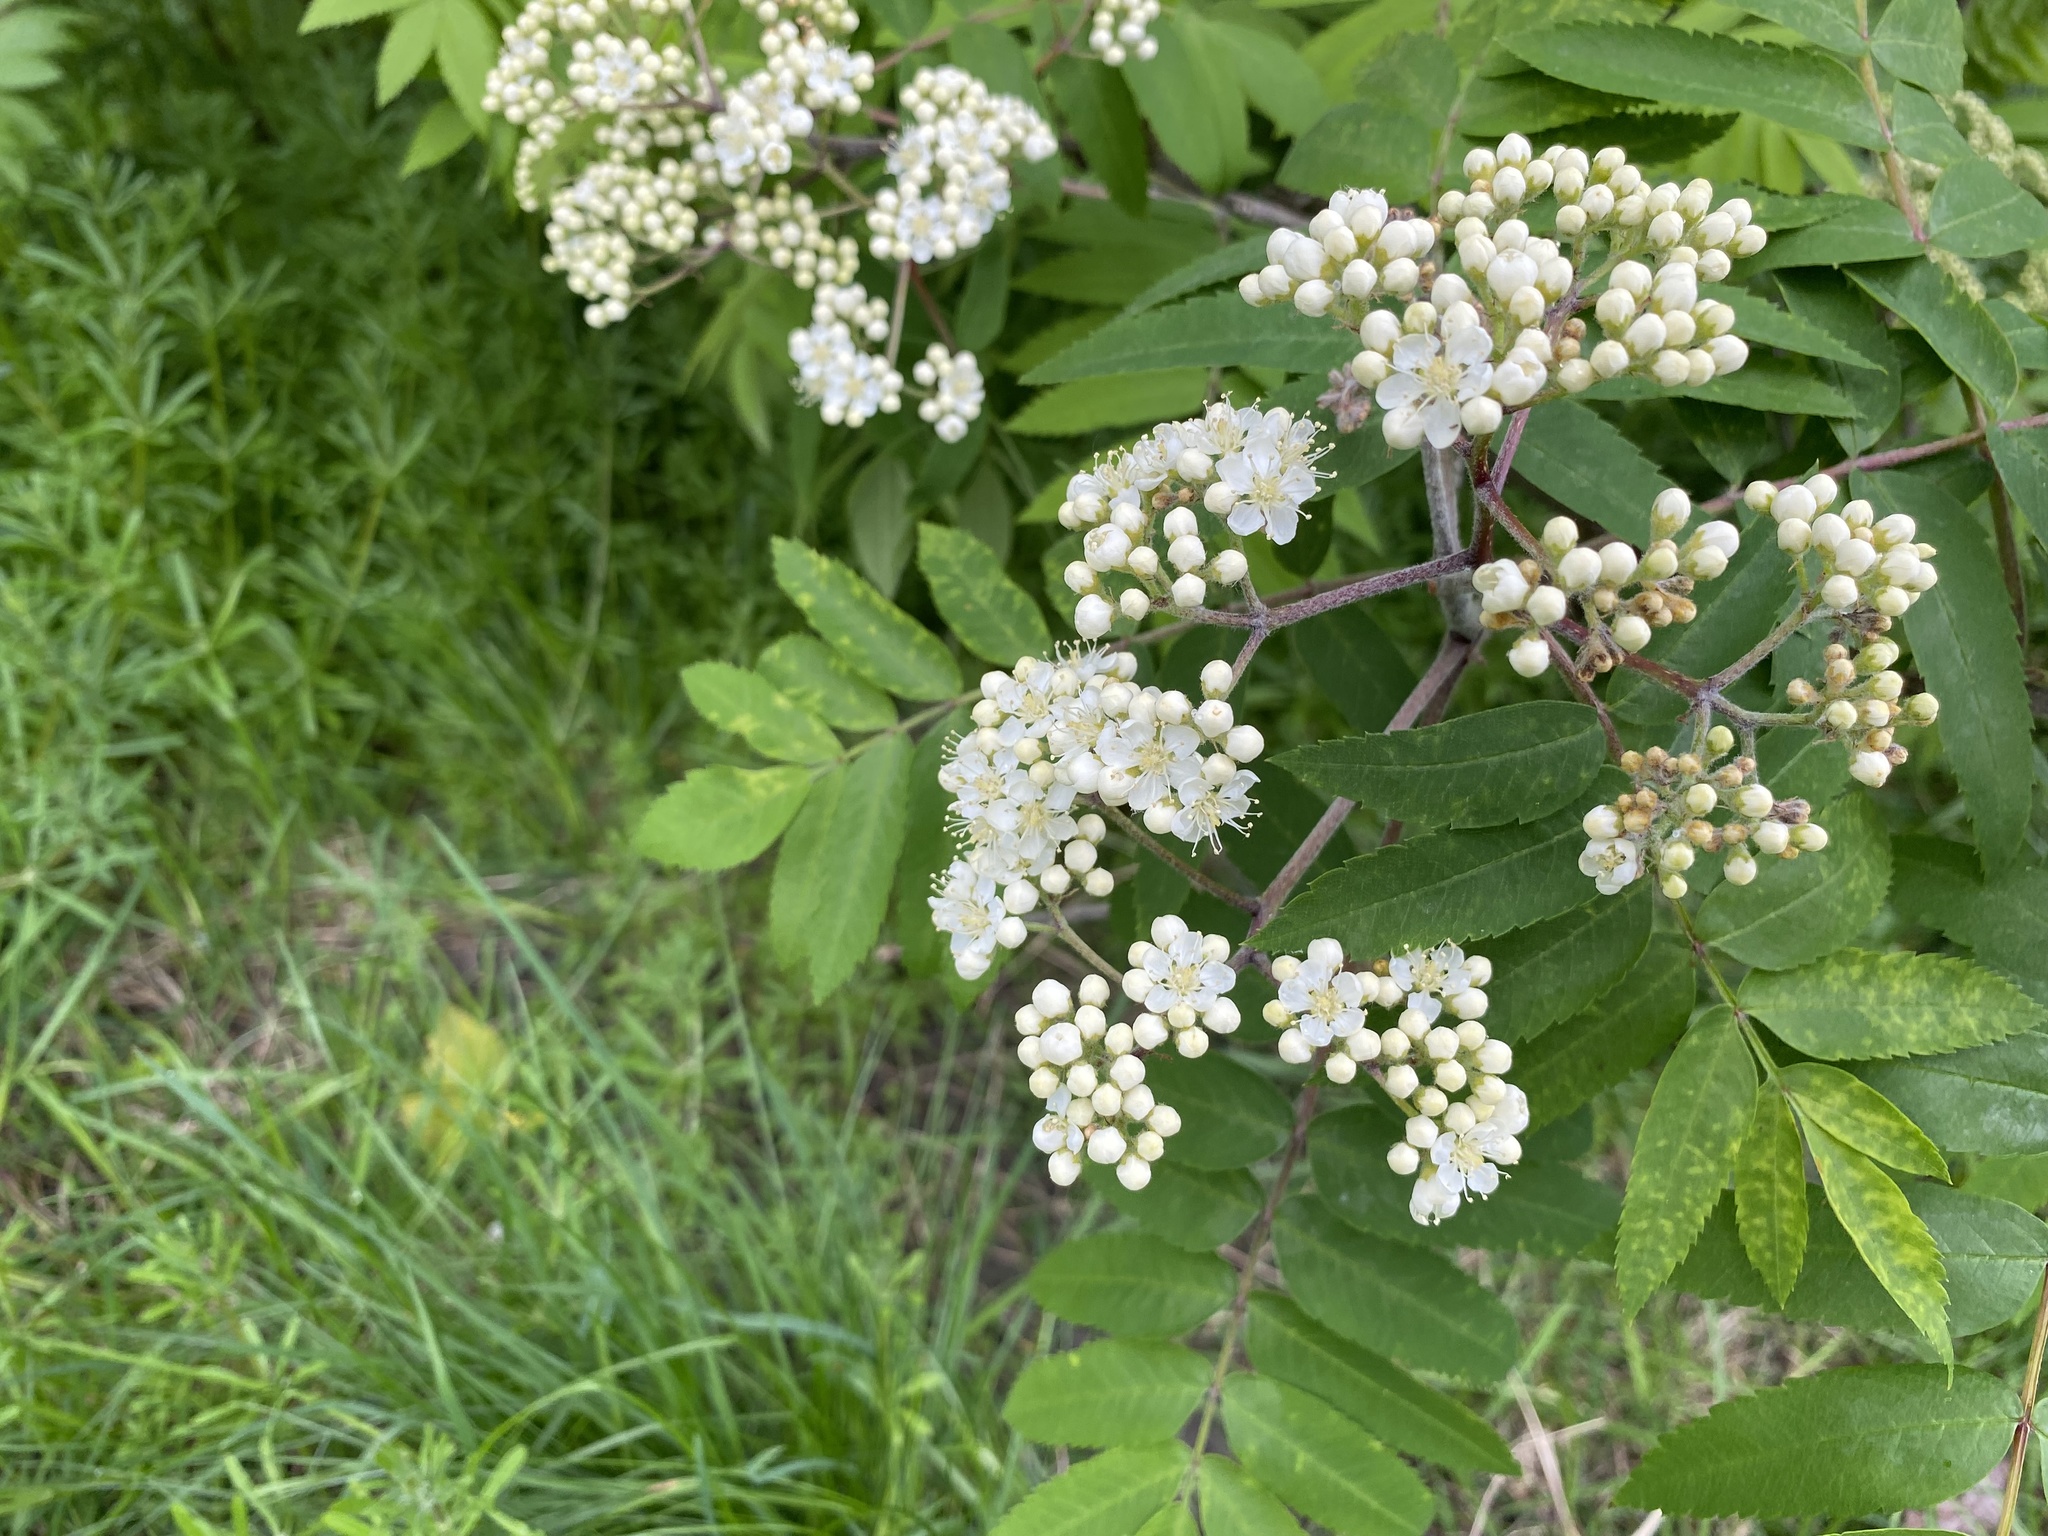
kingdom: Plantae
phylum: Tracheophyta
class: Magnoliopsida
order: Rosales
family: Rosaceae
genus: Sorbus
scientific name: Sorbus aucuparia
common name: Rowan
